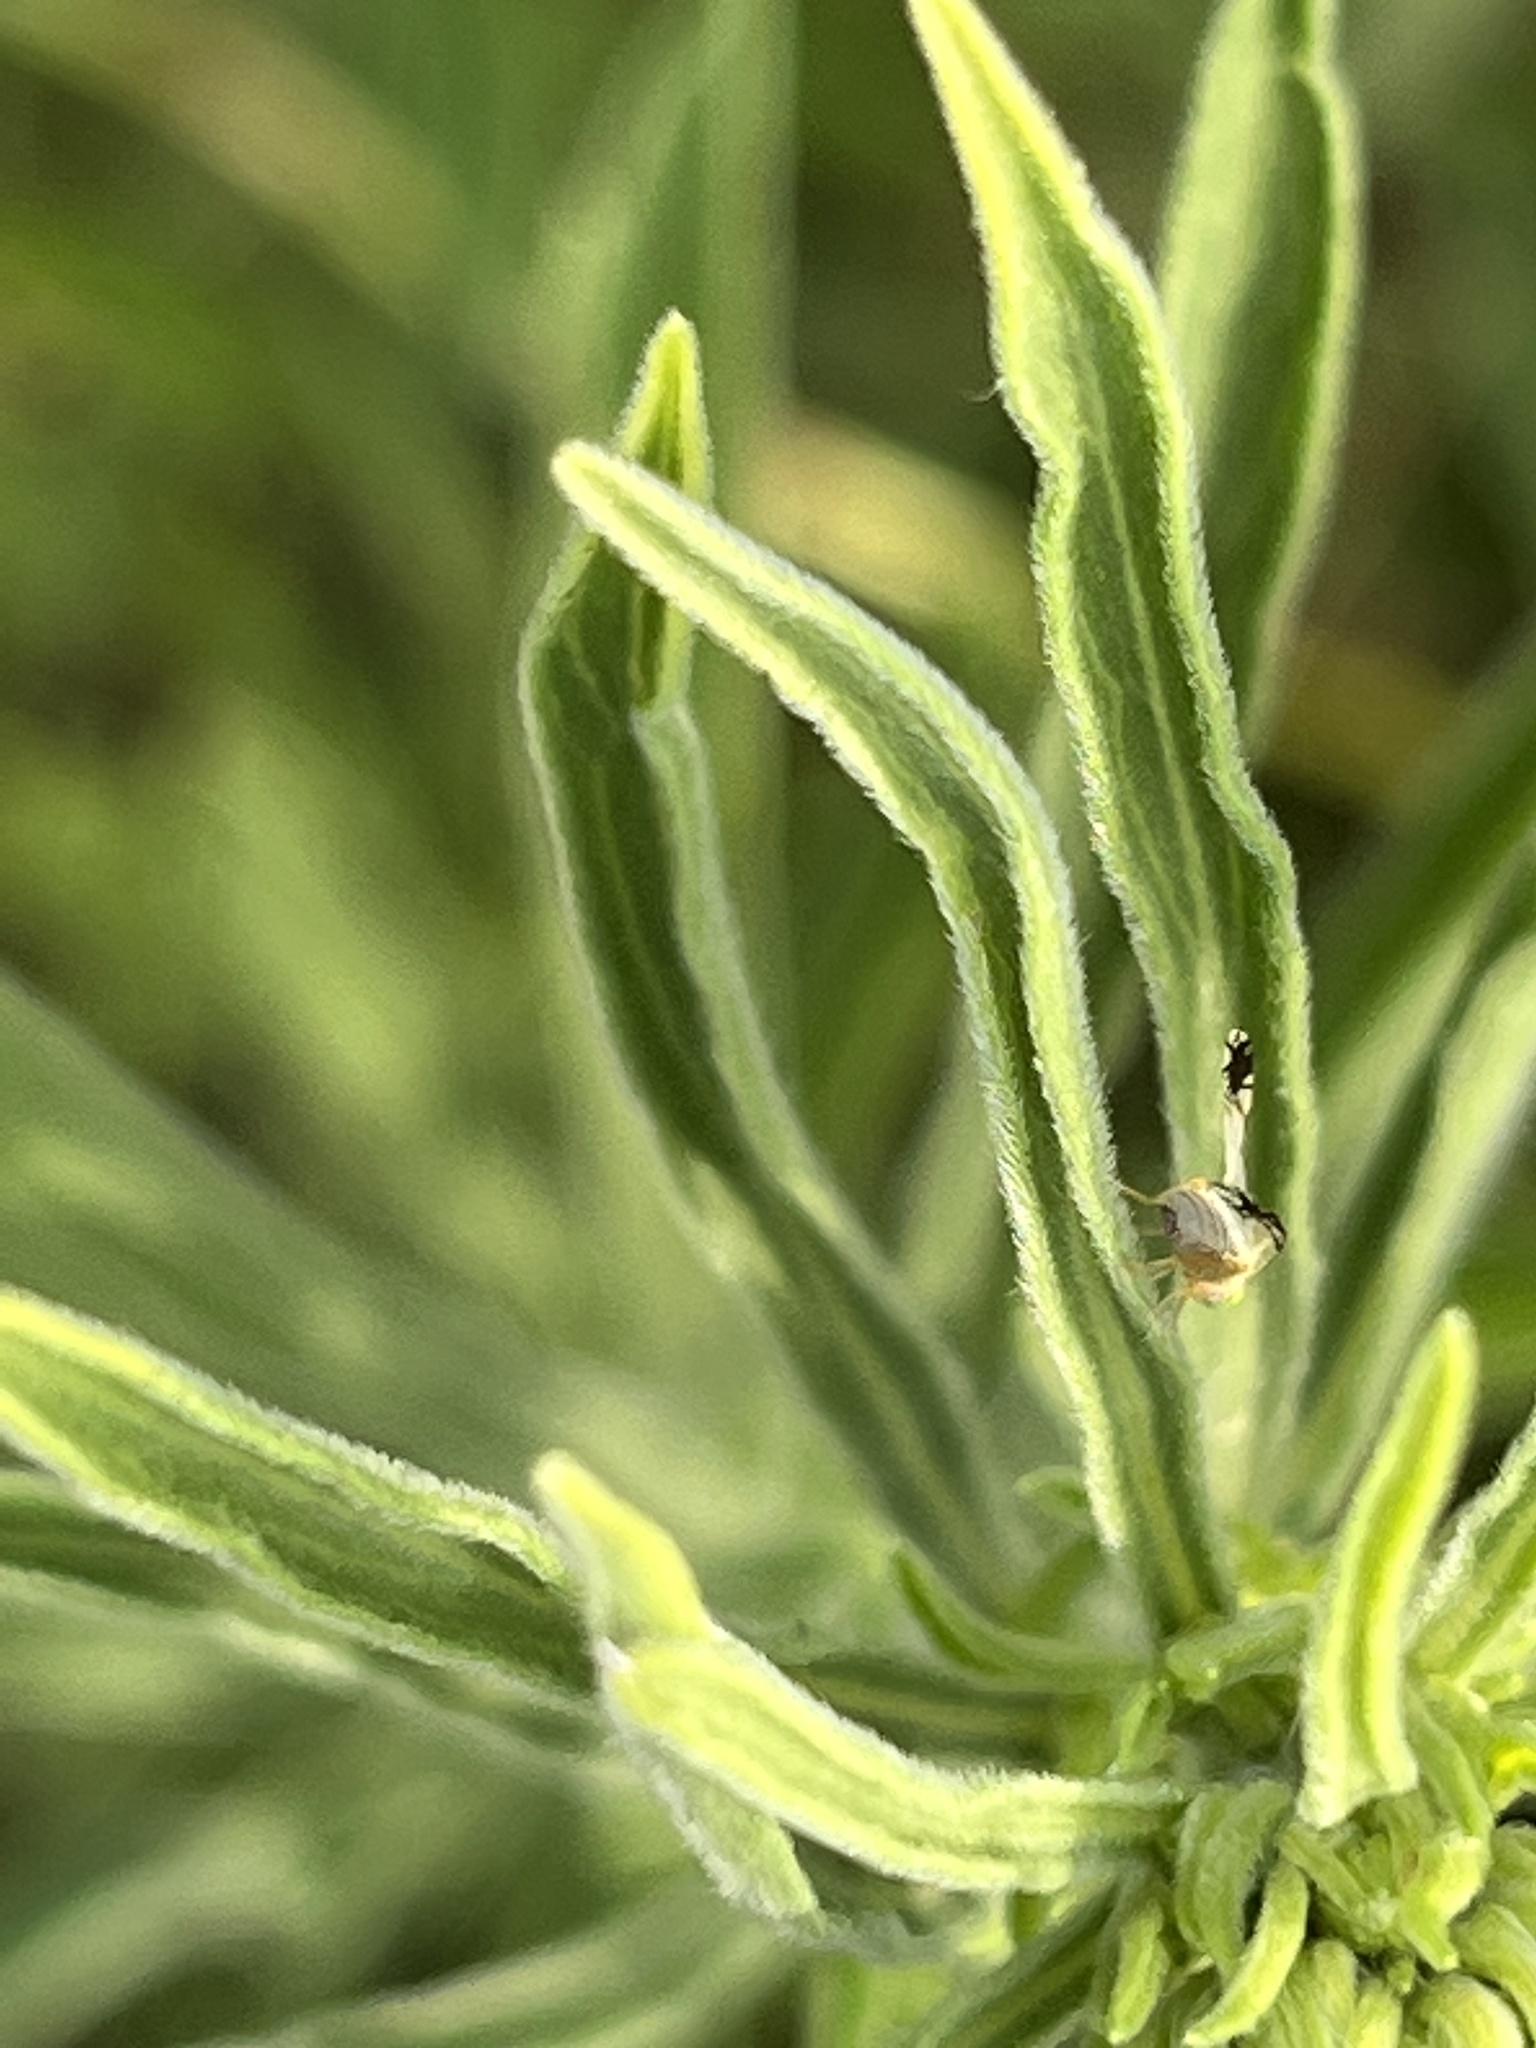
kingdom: Animalia
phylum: Arthropoda
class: Insecta
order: Diptera
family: Tephritidae
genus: Trupanea
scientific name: Trupanea actinobola
